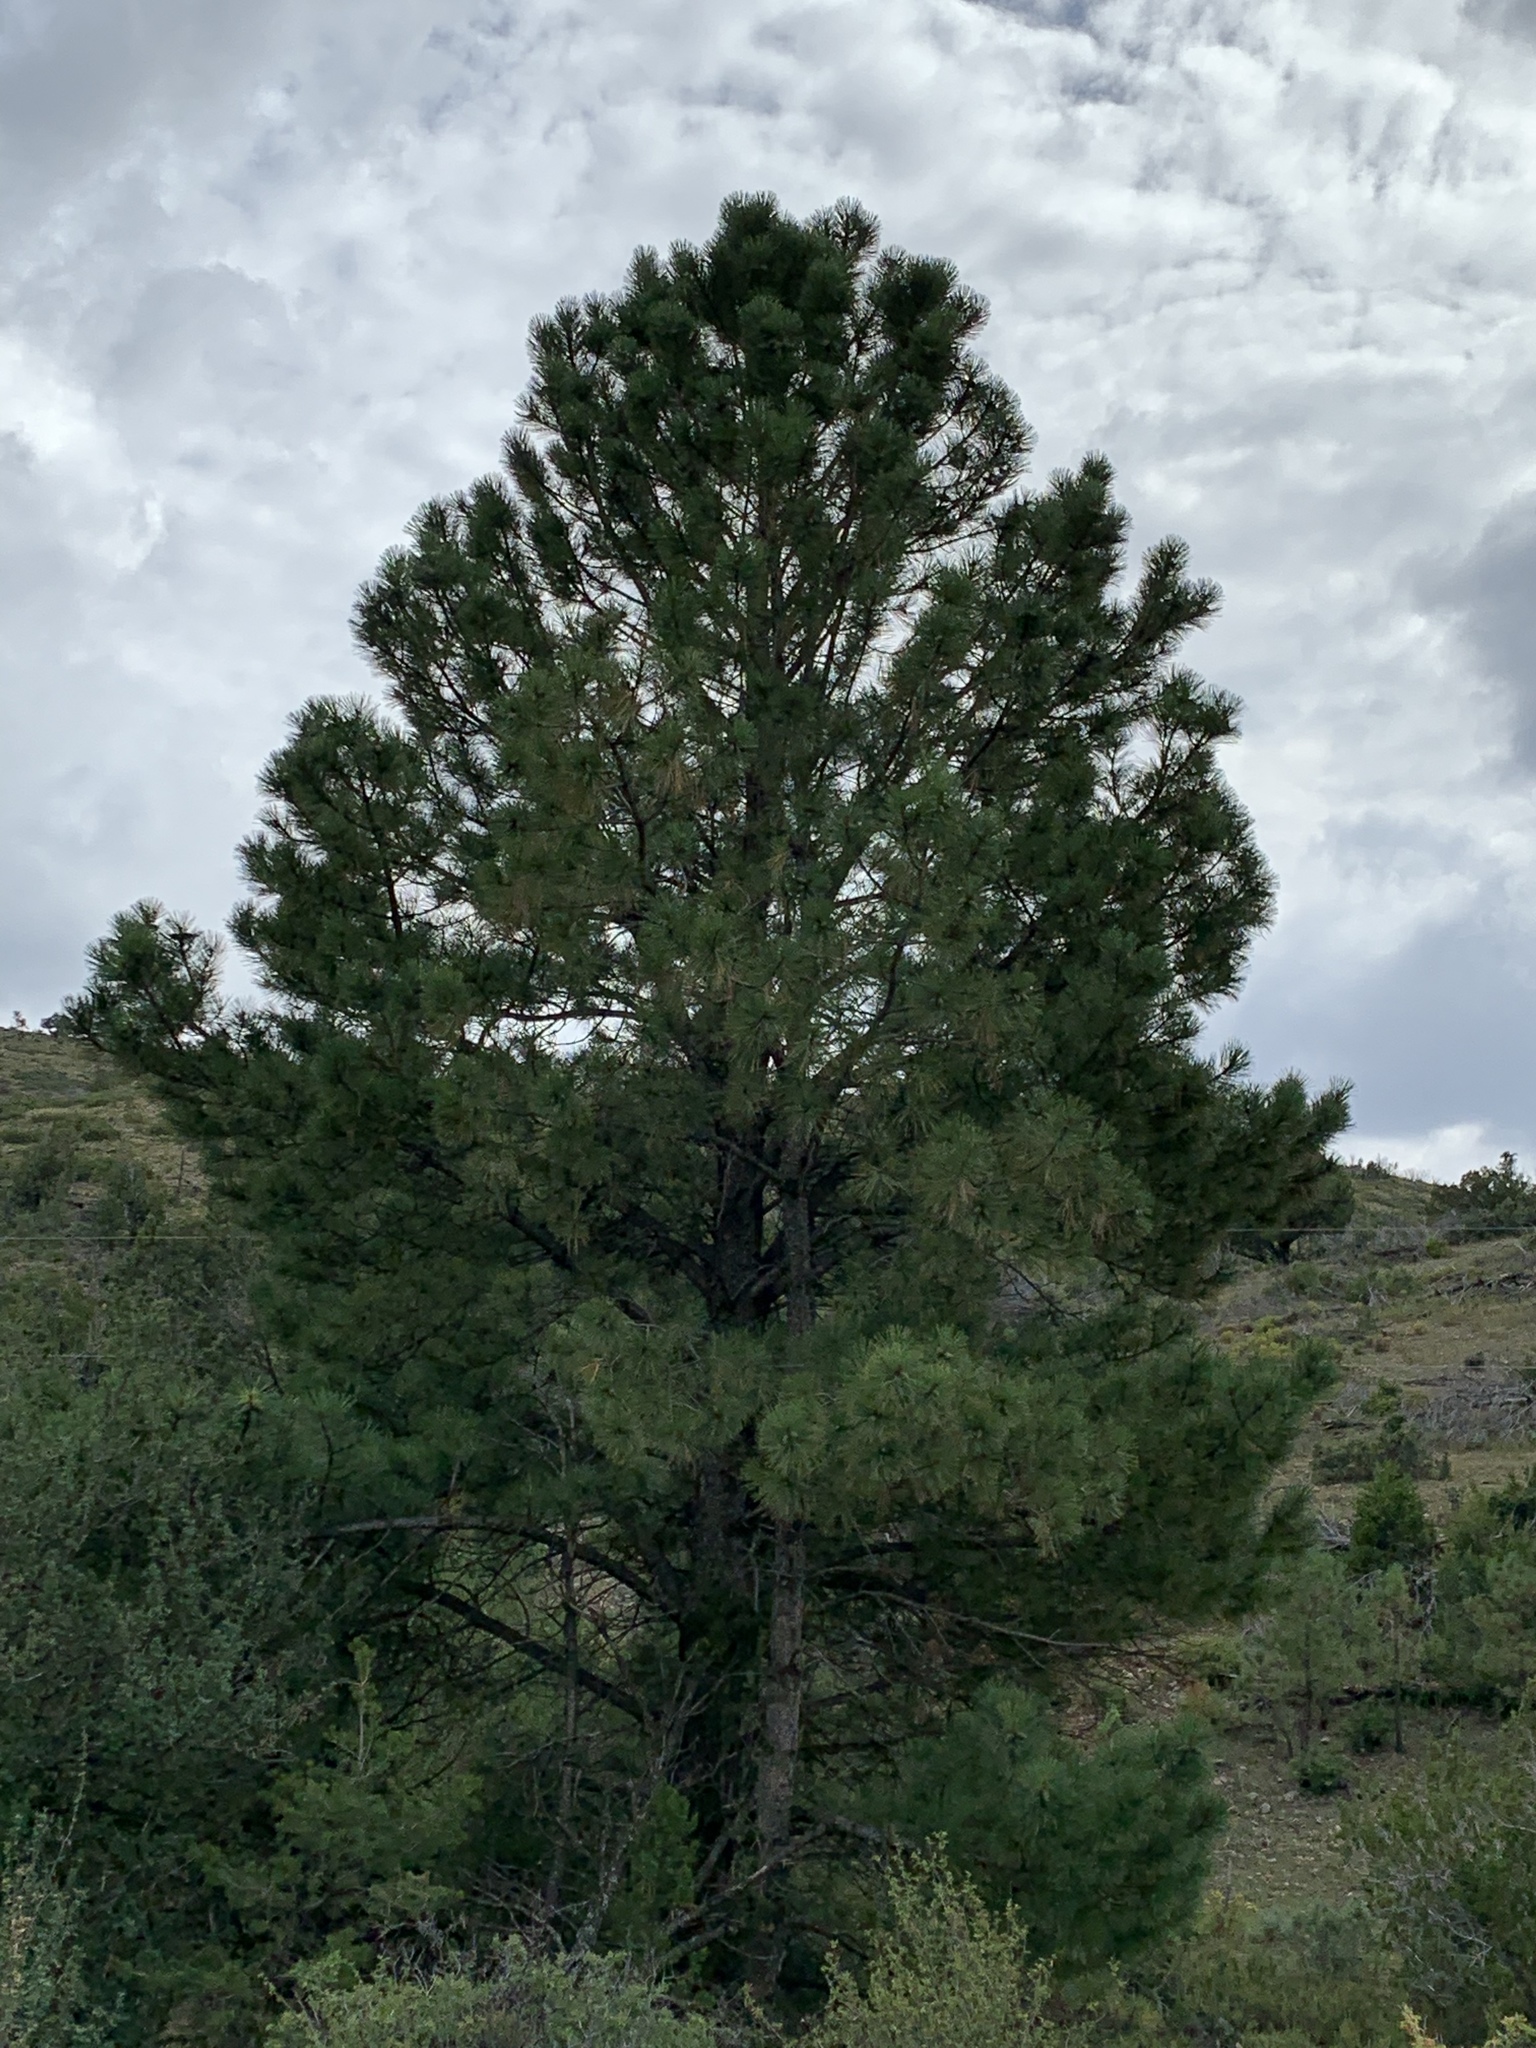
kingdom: Plantae
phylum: Tracheophyta
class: Pinopsida
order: Pinales
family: Pinaceae
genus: Pinus
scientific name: Pinus ponderosa
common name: Western yellow-pine
